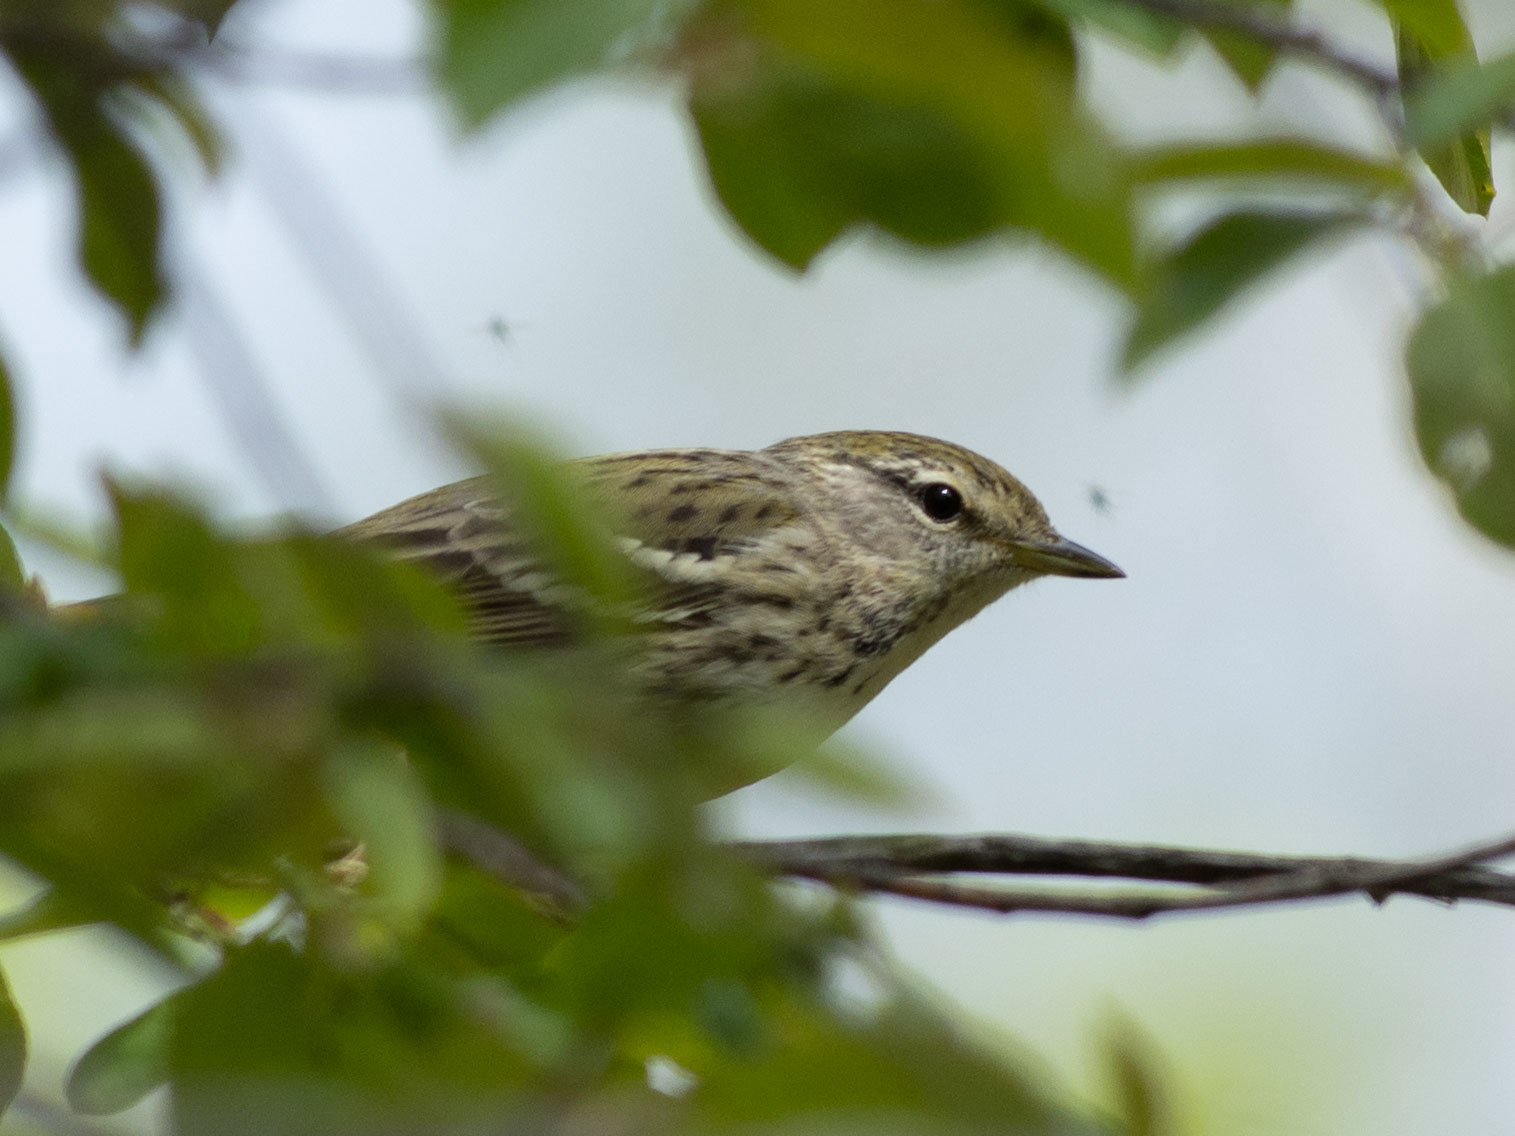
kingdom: Animalia
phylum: Chordata
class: Aves
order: Passeriformes
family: Parulidae
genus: Setophaga
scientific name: Setophaga striata
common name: Blackpoll warbler
